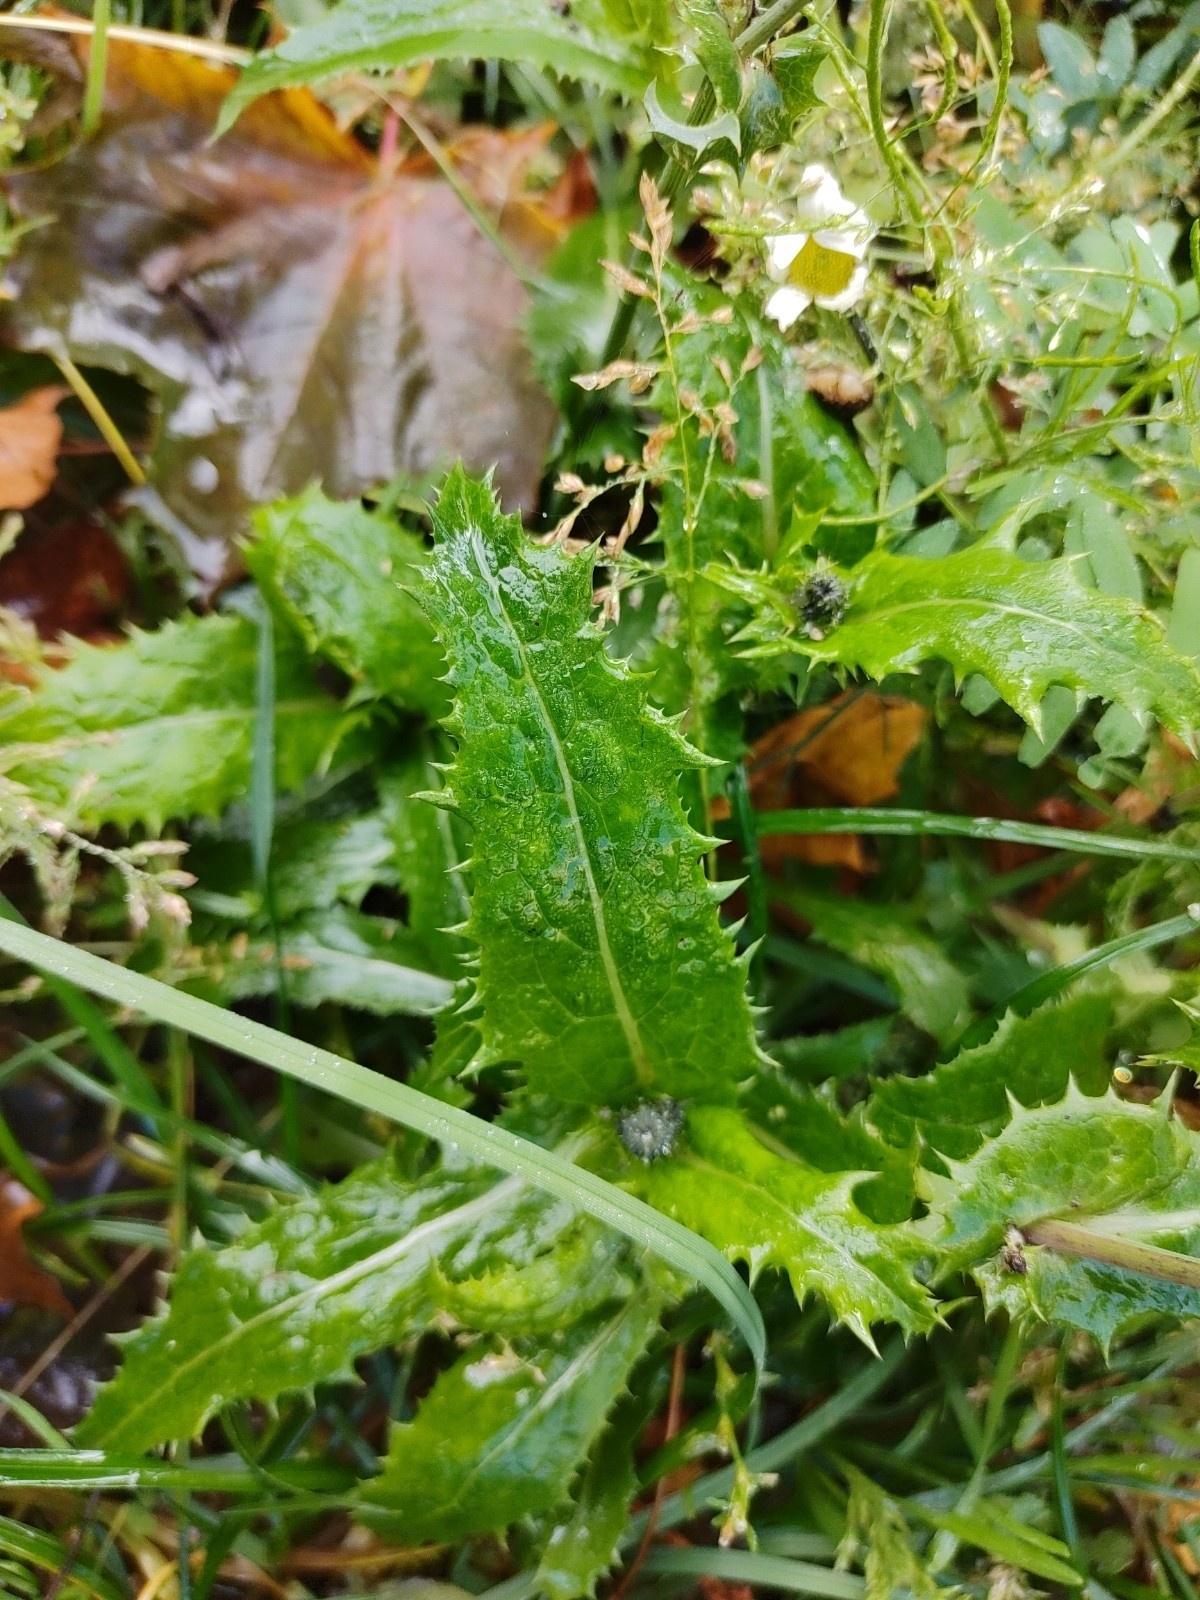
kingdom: Plantae
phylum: Tracheophyta
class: Magnoliopsida
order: Asterales
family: Asteraceae
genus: Sonchus
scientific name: Sonchus asper
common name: Prickly sow-thistle
